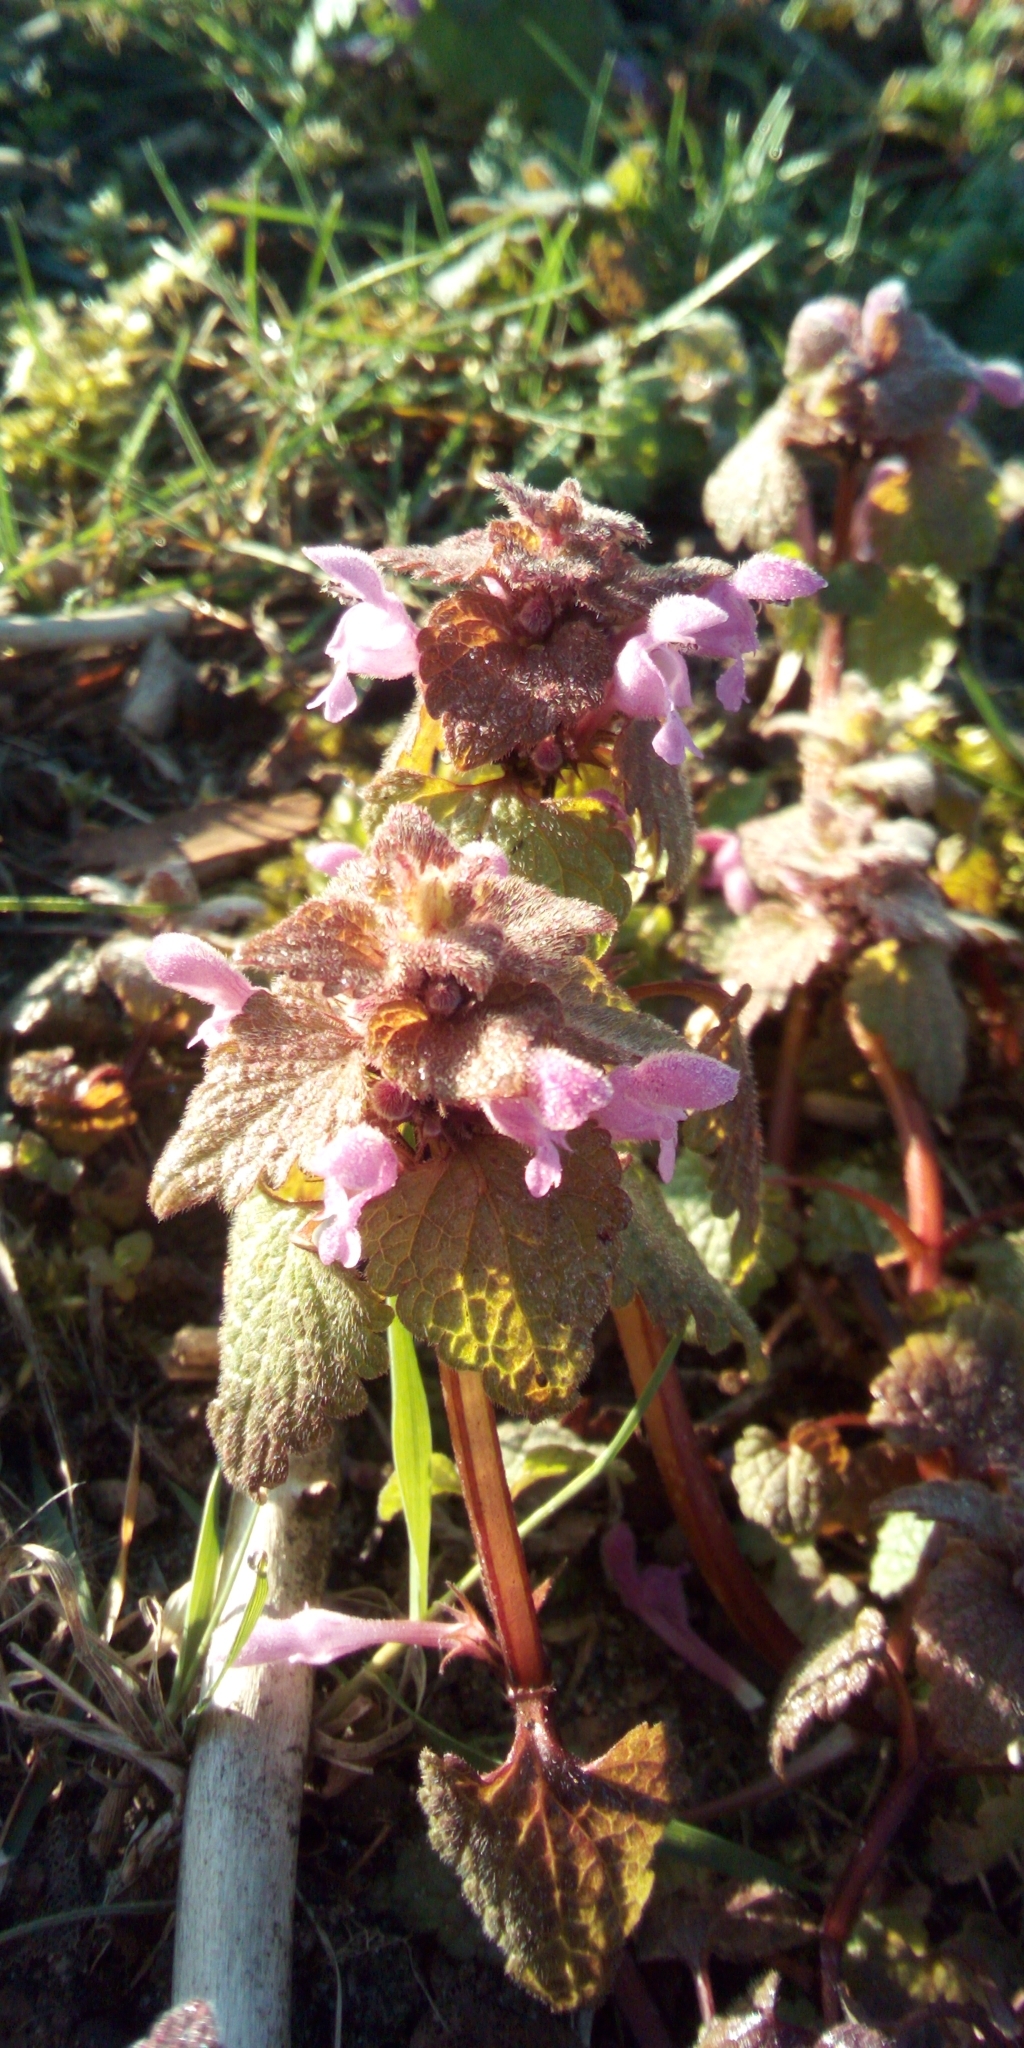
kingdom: Plantae
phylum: Tracheophyta
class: Magnoliopsida
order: Lamiales
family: Lamiaceae
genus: Lamium
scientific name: Lamium purpureum
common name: Red dead-nettle
